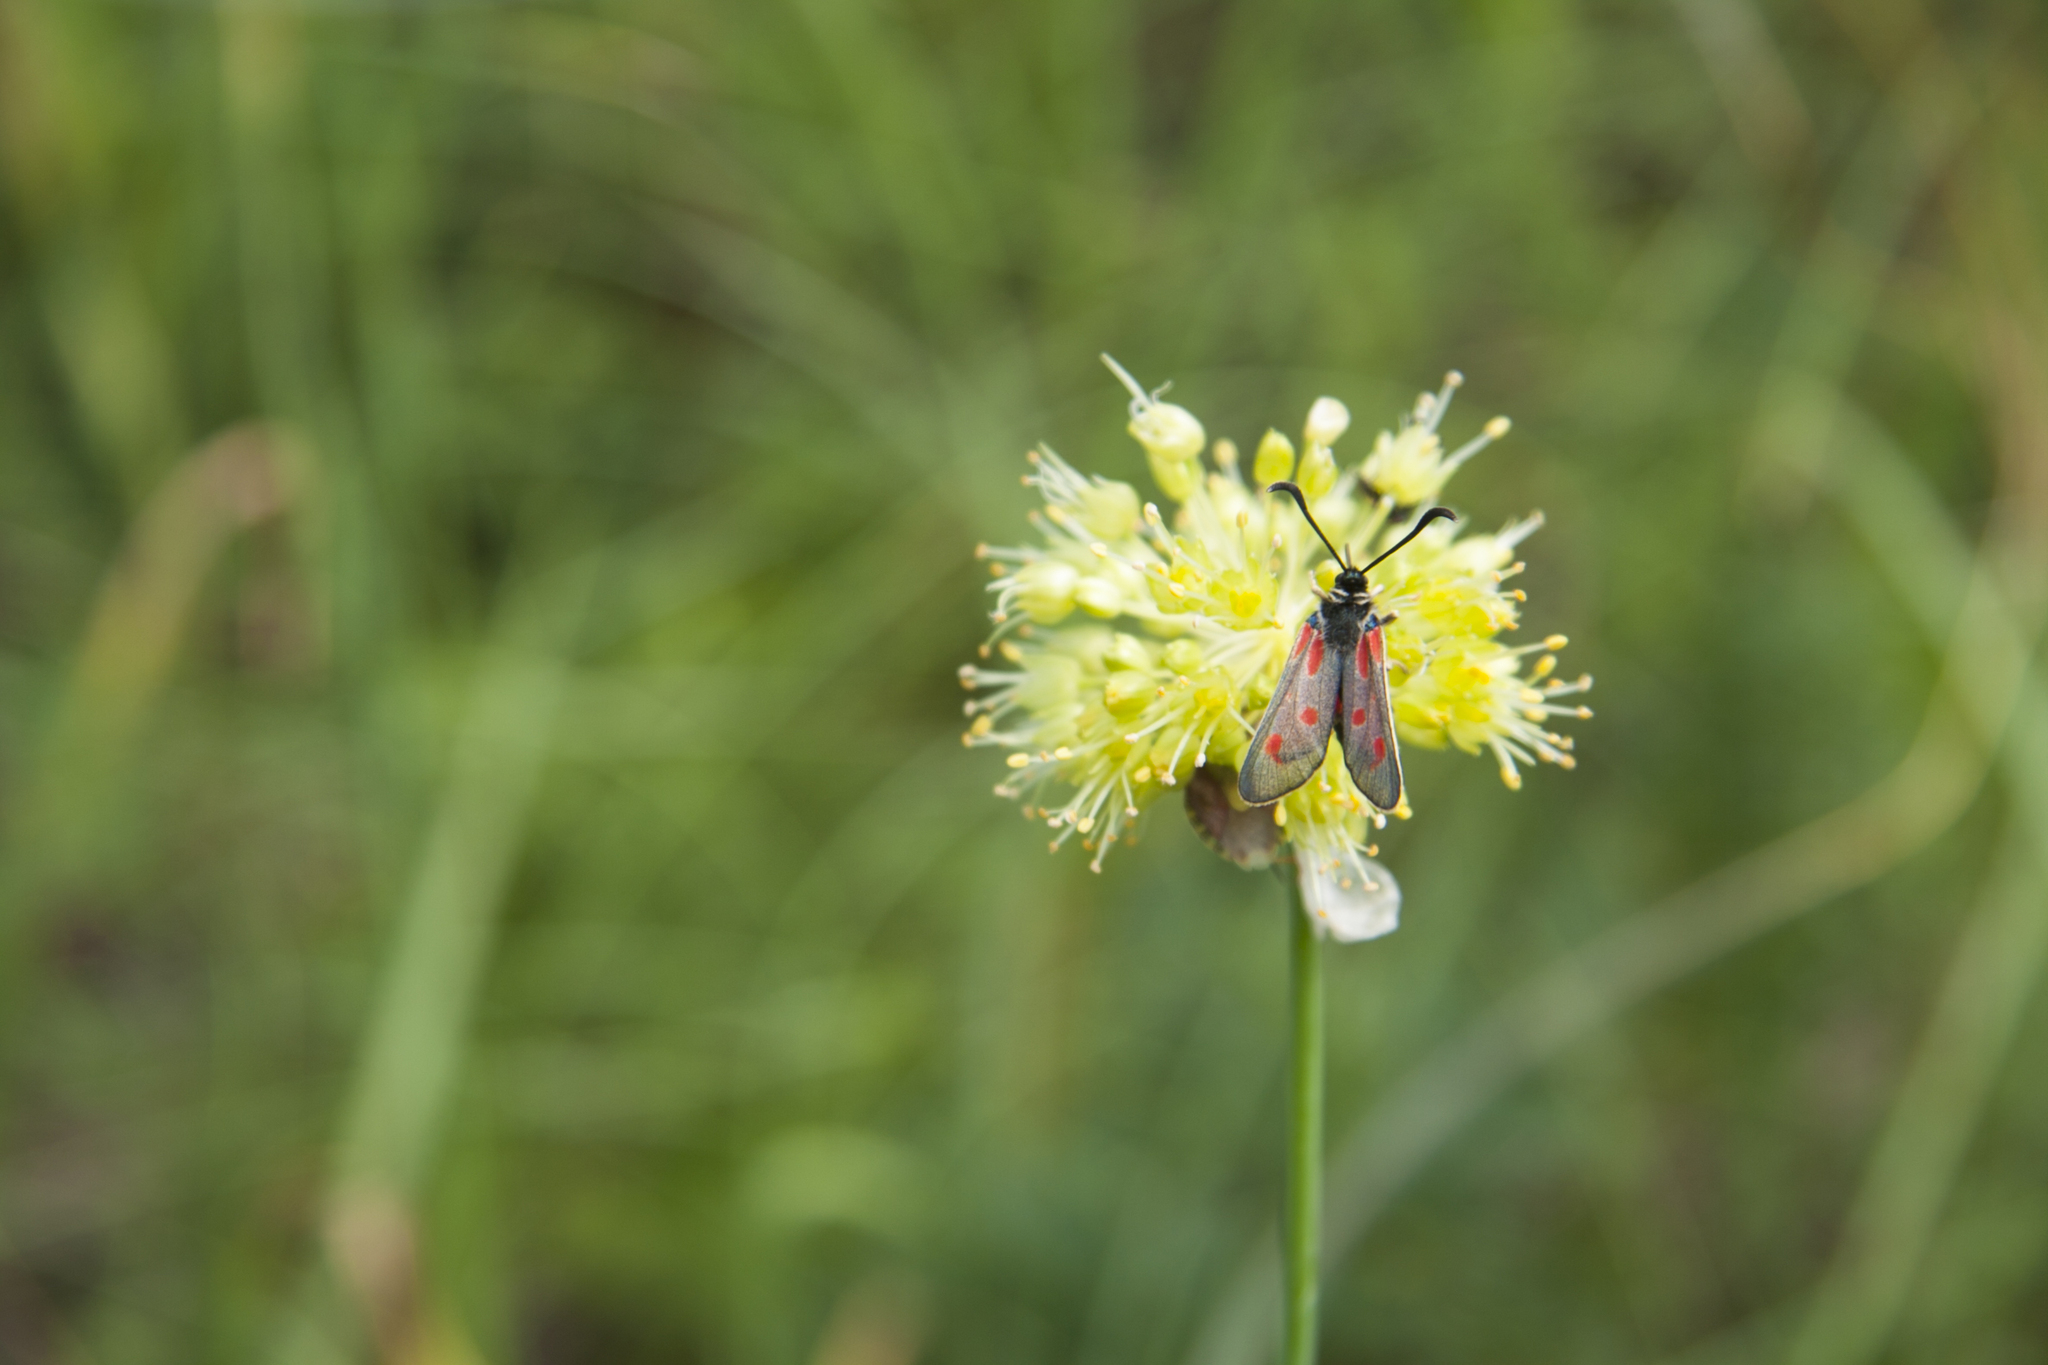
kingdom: Animalia
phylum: Arthropoda
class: Insecta
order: Lepidoptera
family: Zygaenidae
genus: Zygaena
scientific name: Zygaena loti
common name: Slender scotch burnet
